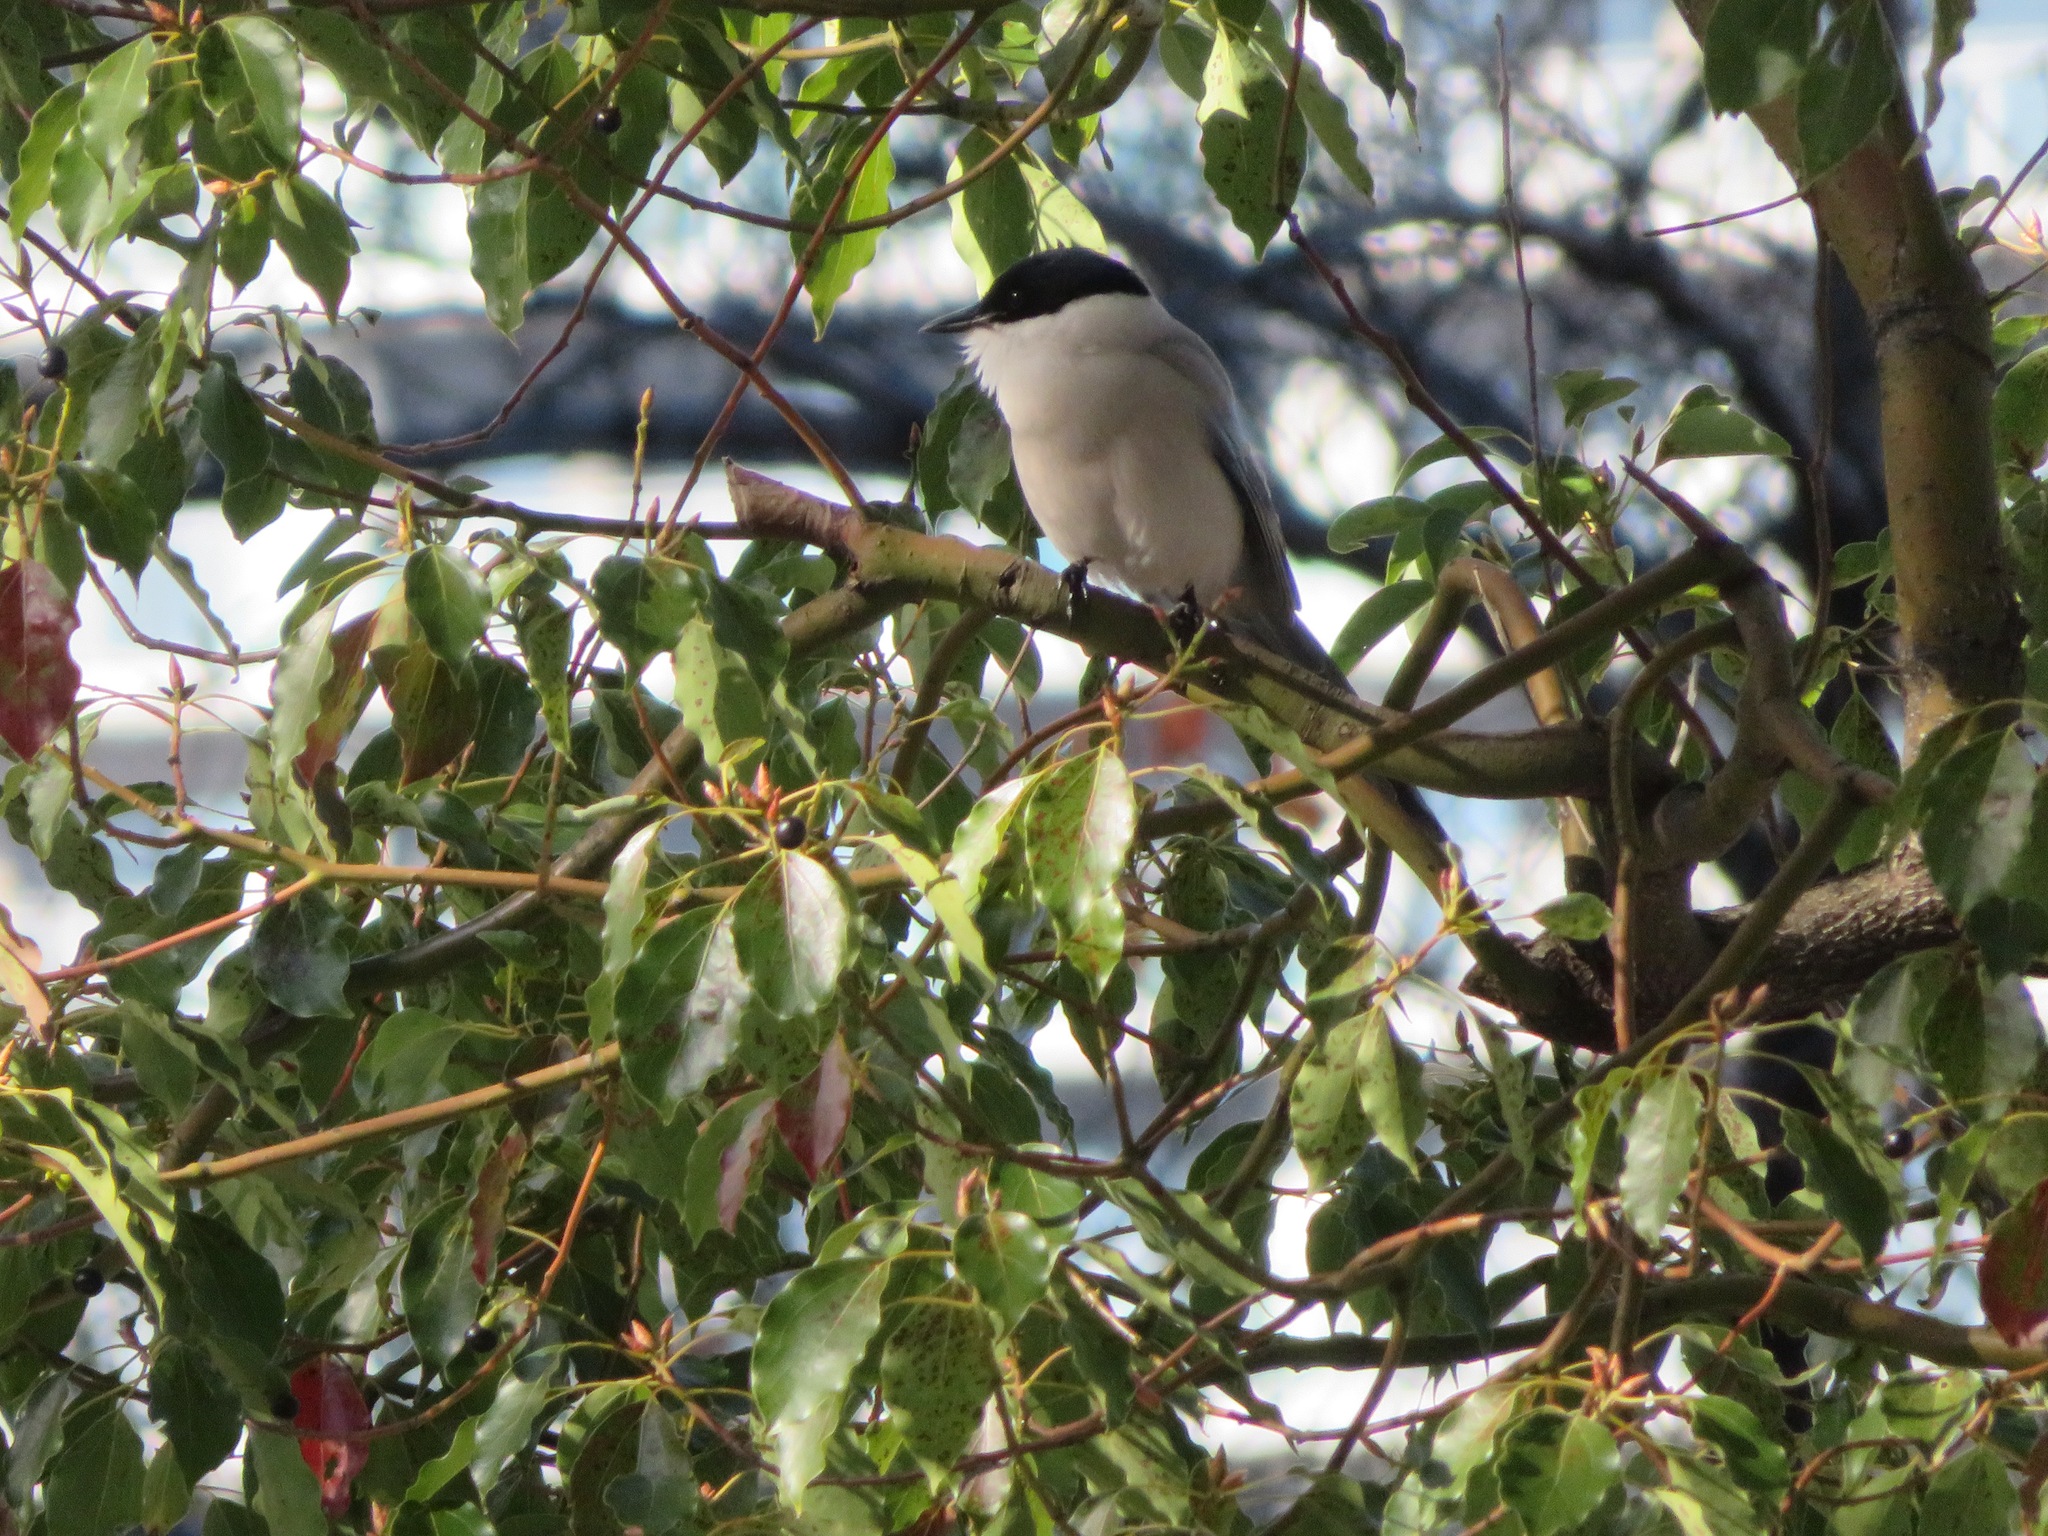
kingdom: Animalia
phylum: Chordata
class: Aves
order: Passeriformes
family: Corvidae
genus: Cyanopica
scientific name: Cyanopica cyanus
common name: Azure-winged magpie
